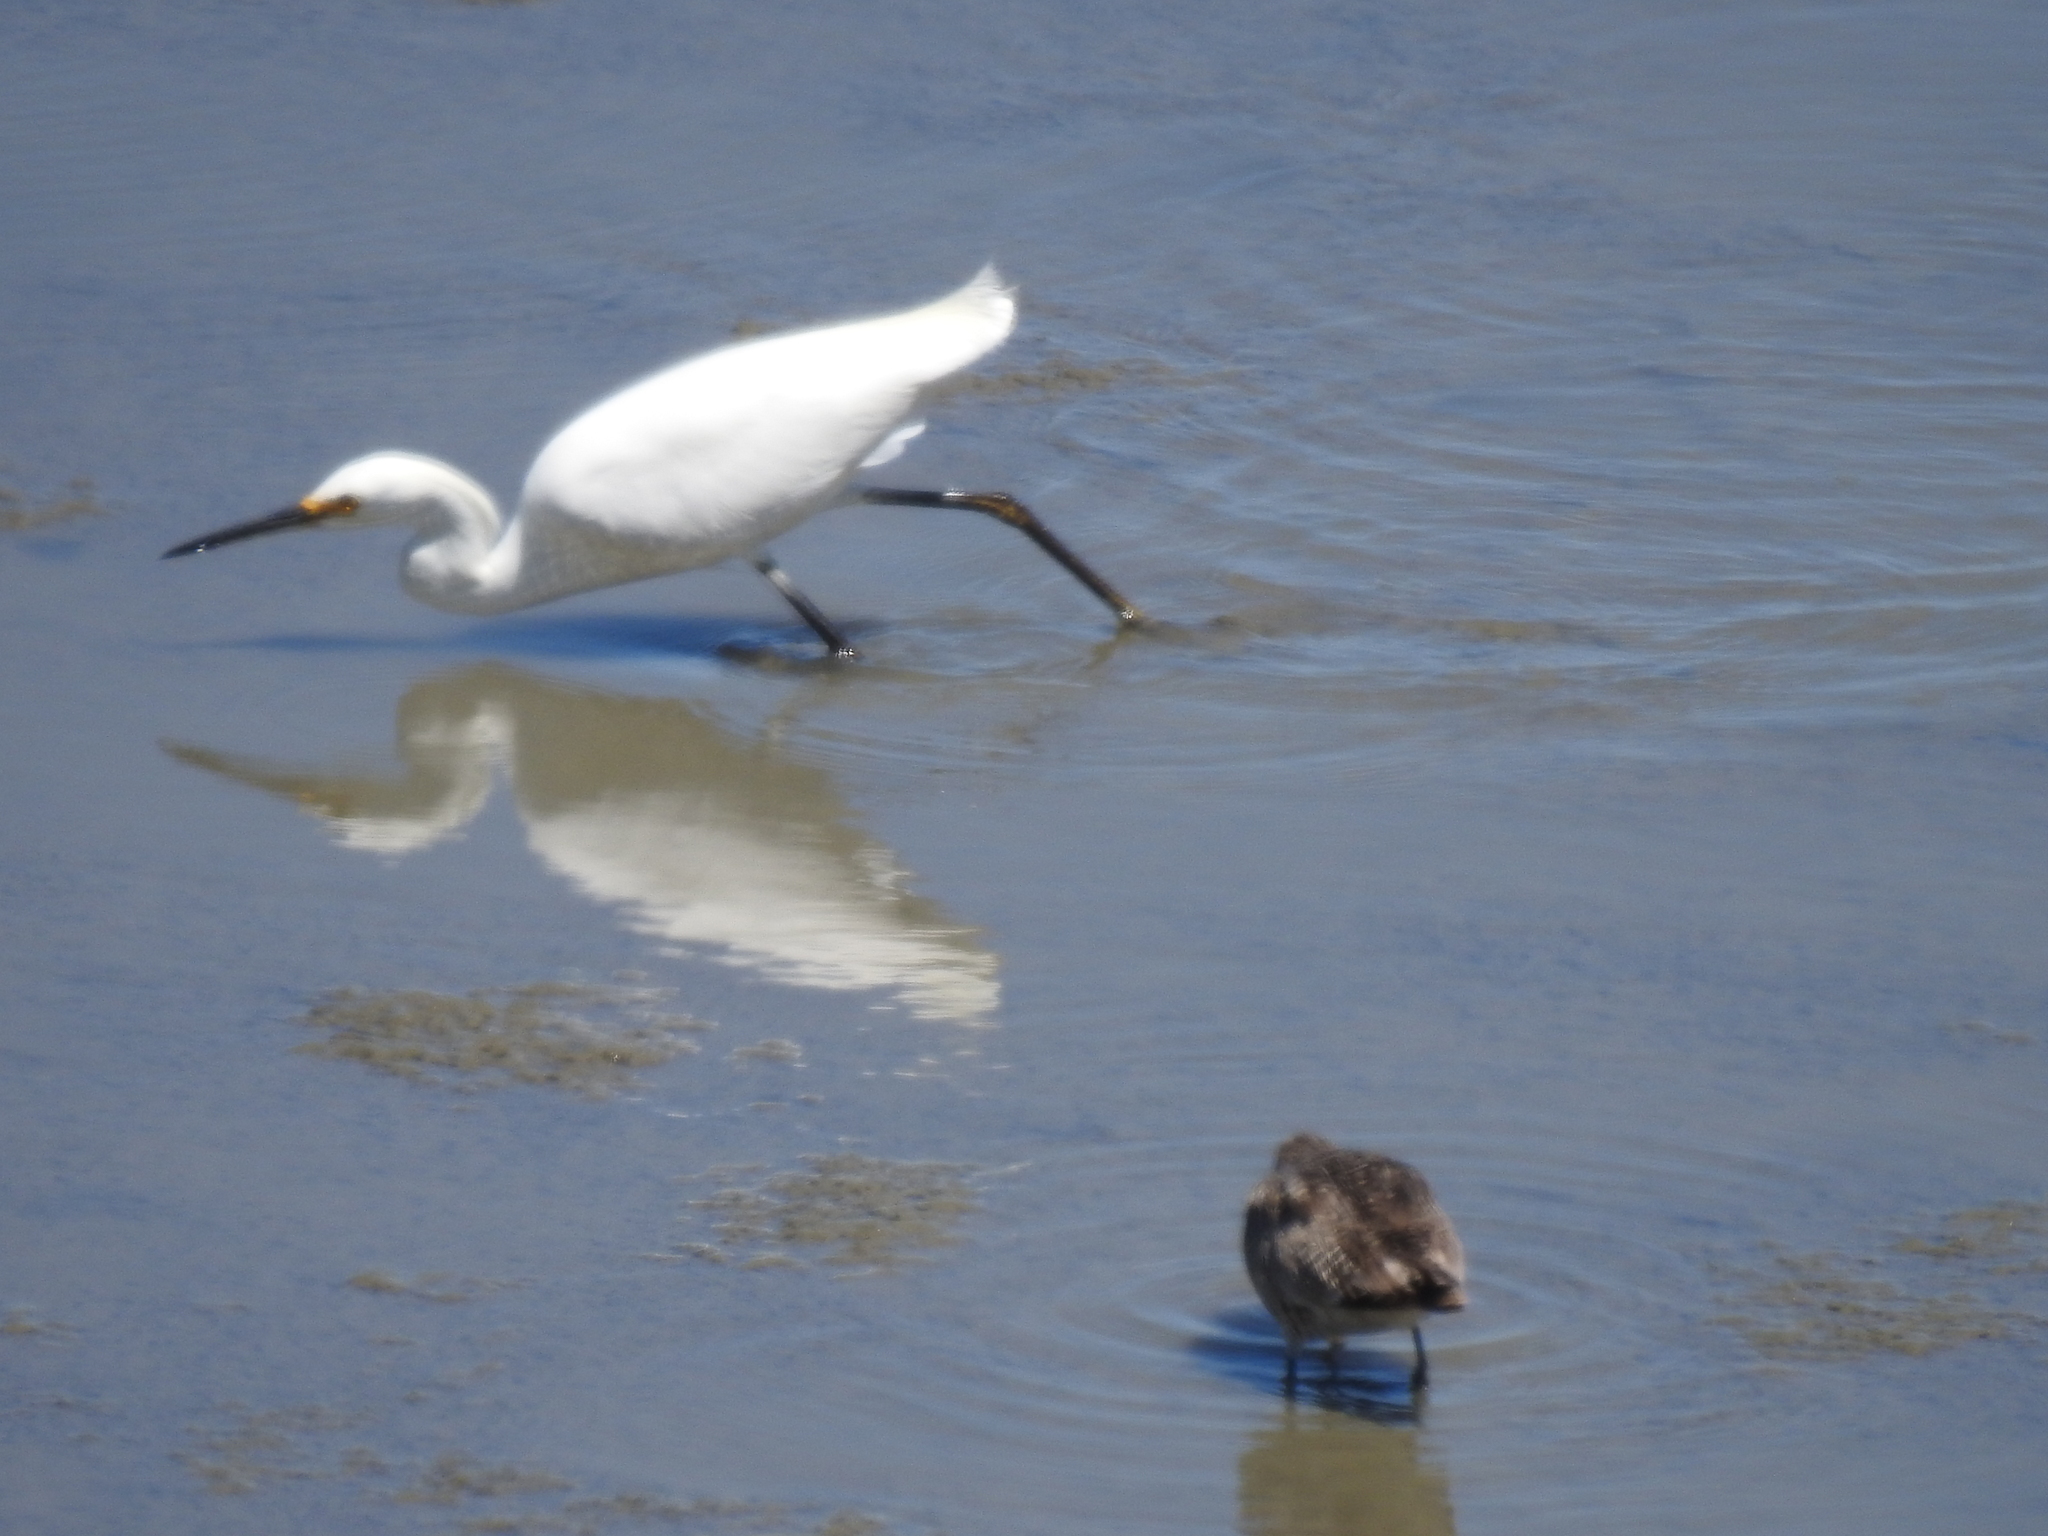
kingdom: Animalia
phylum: Chordata
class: Aves
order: Pelecaniformes
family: Ardeidae
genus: Egretta
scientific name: Egretta thula
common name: Snowy egret
